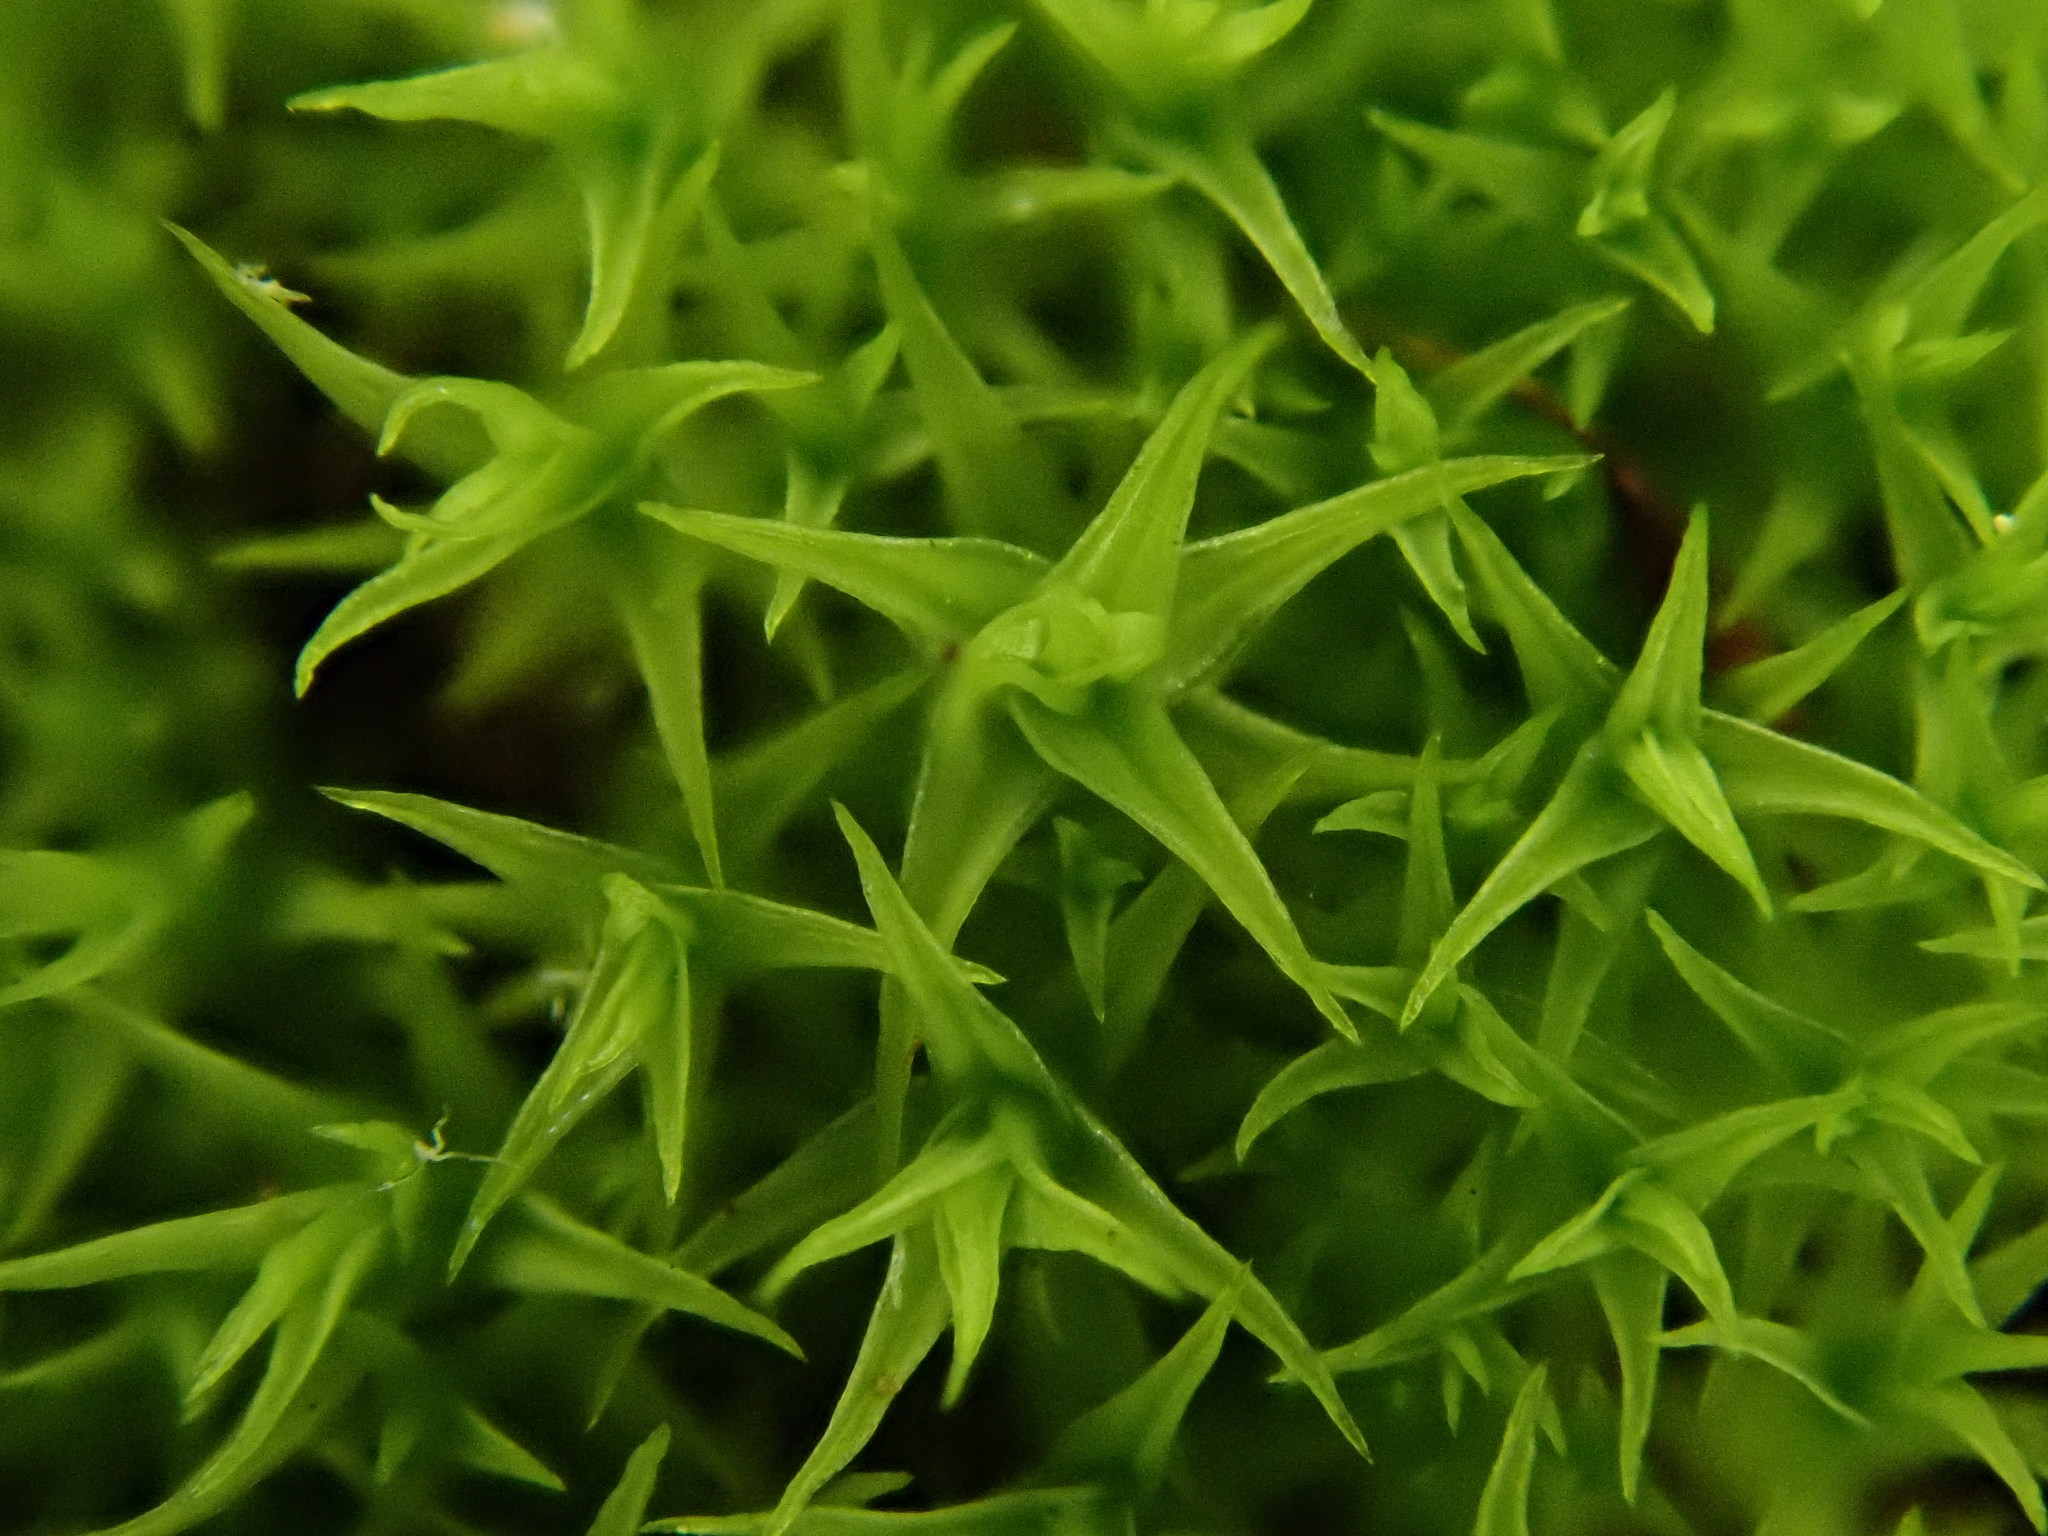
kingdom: Plantae
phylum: Bryophyta
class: Bryopsida
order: Pottiales
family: Pottiaceae
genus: Vinealobryum
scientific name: Vinealobryum vineale
